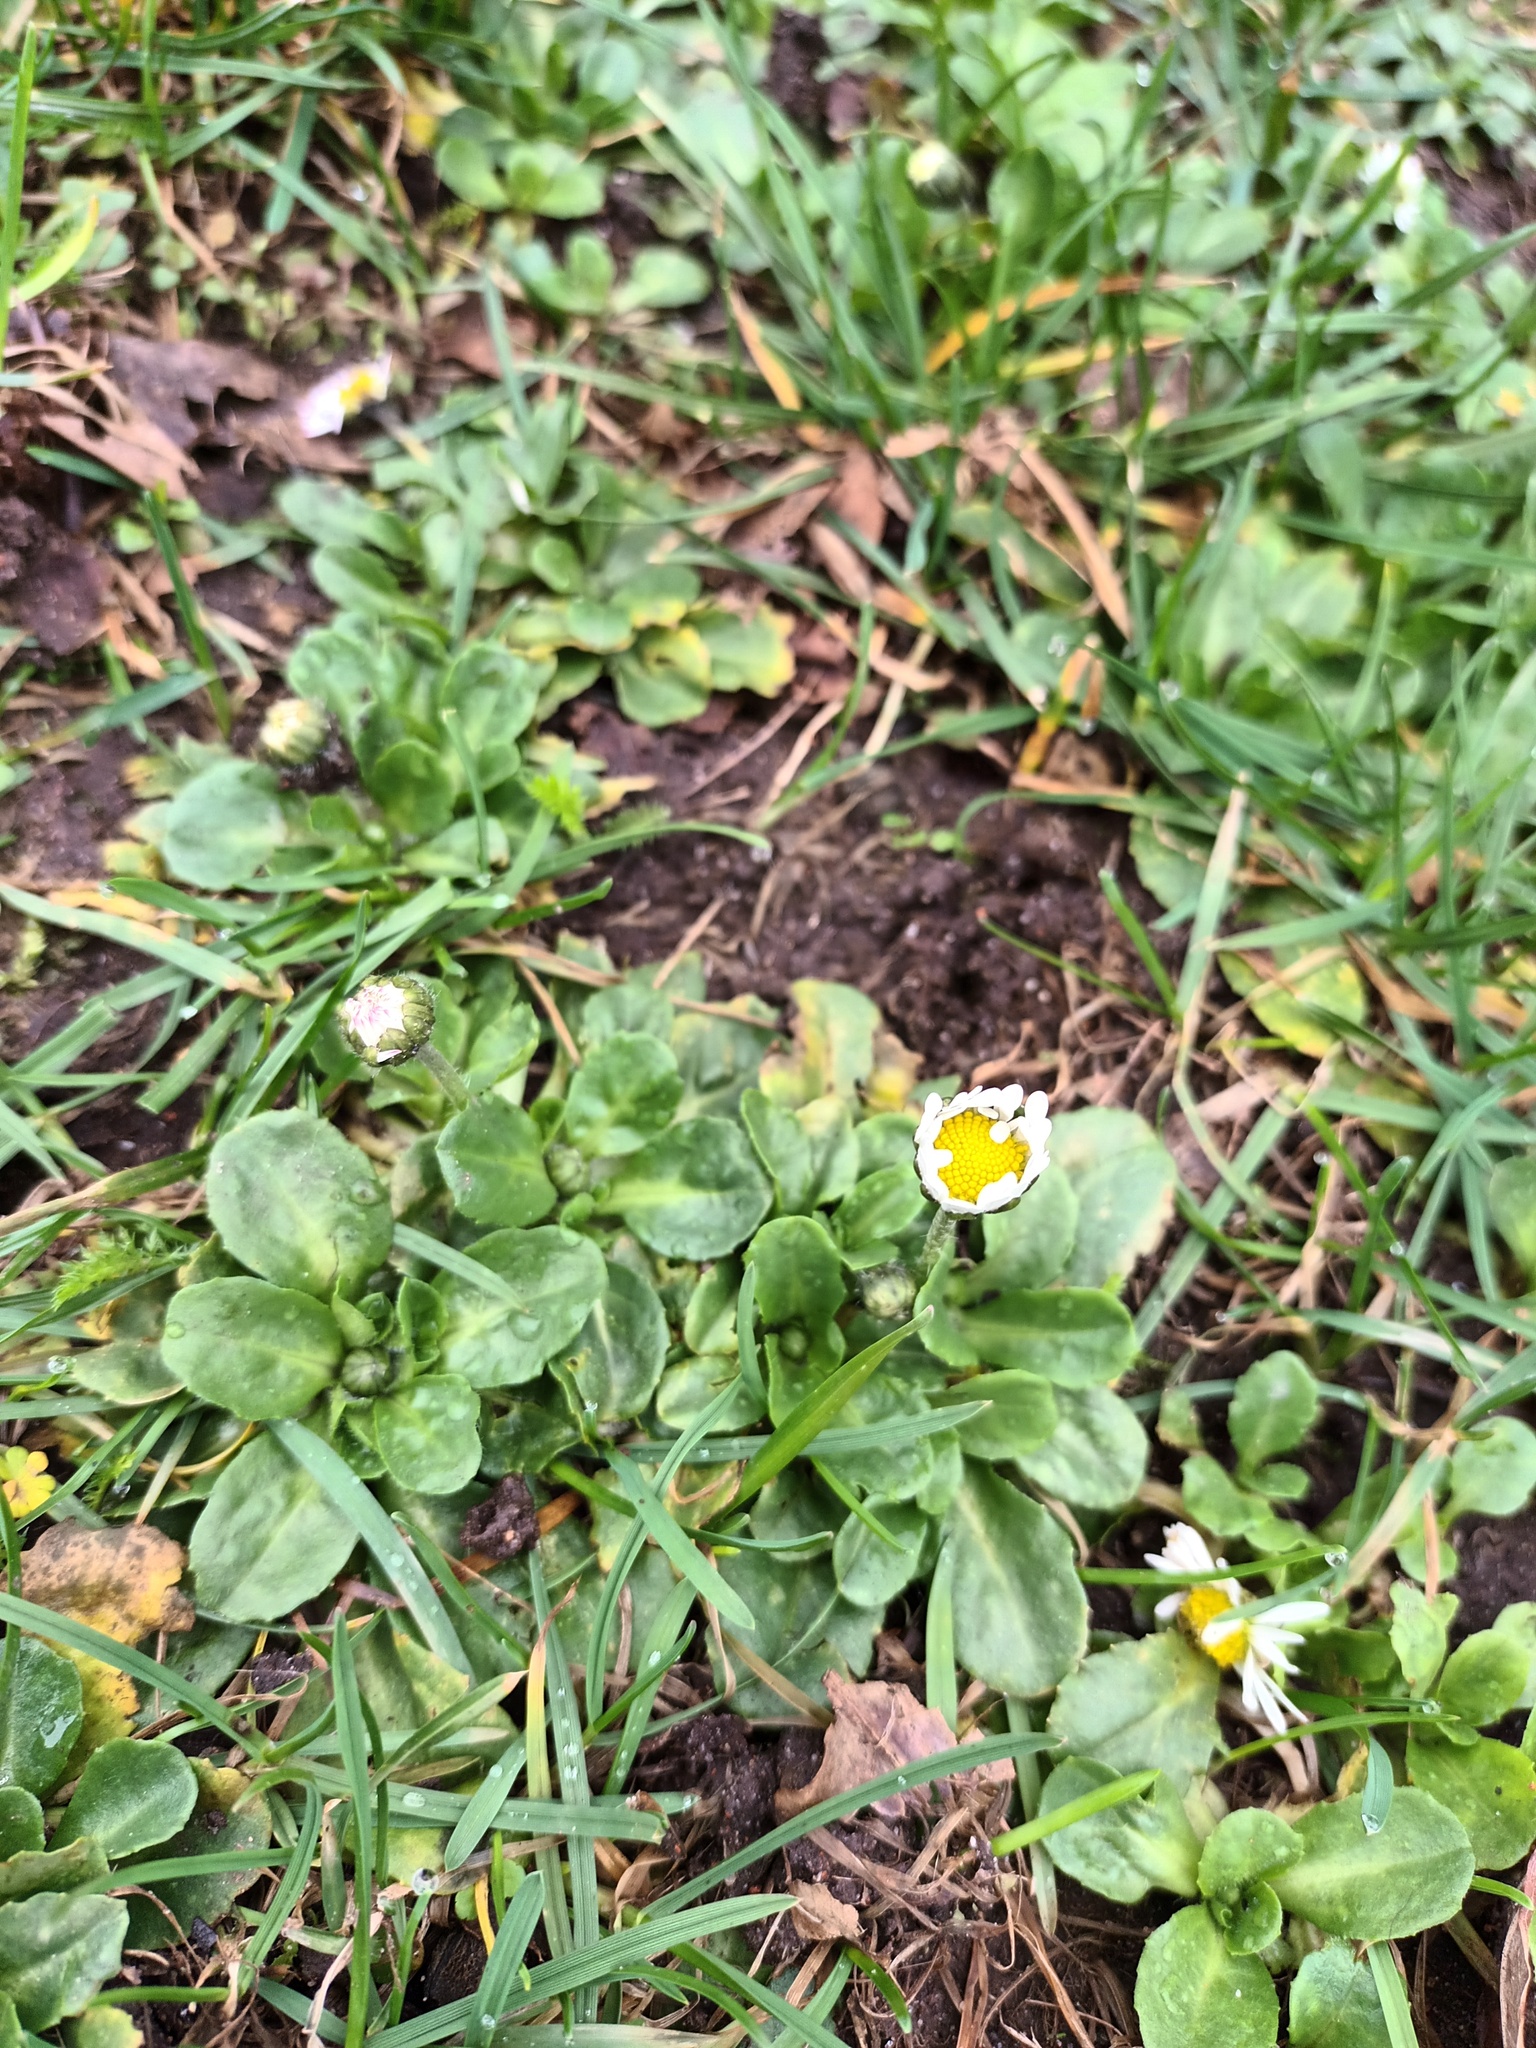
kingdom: Plantae
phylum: Tracheophyta
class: Magnoliopsida
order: Asterales
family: Asteraceae
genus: Bellis
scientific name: Bellis perennis
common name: Lawndaisy
